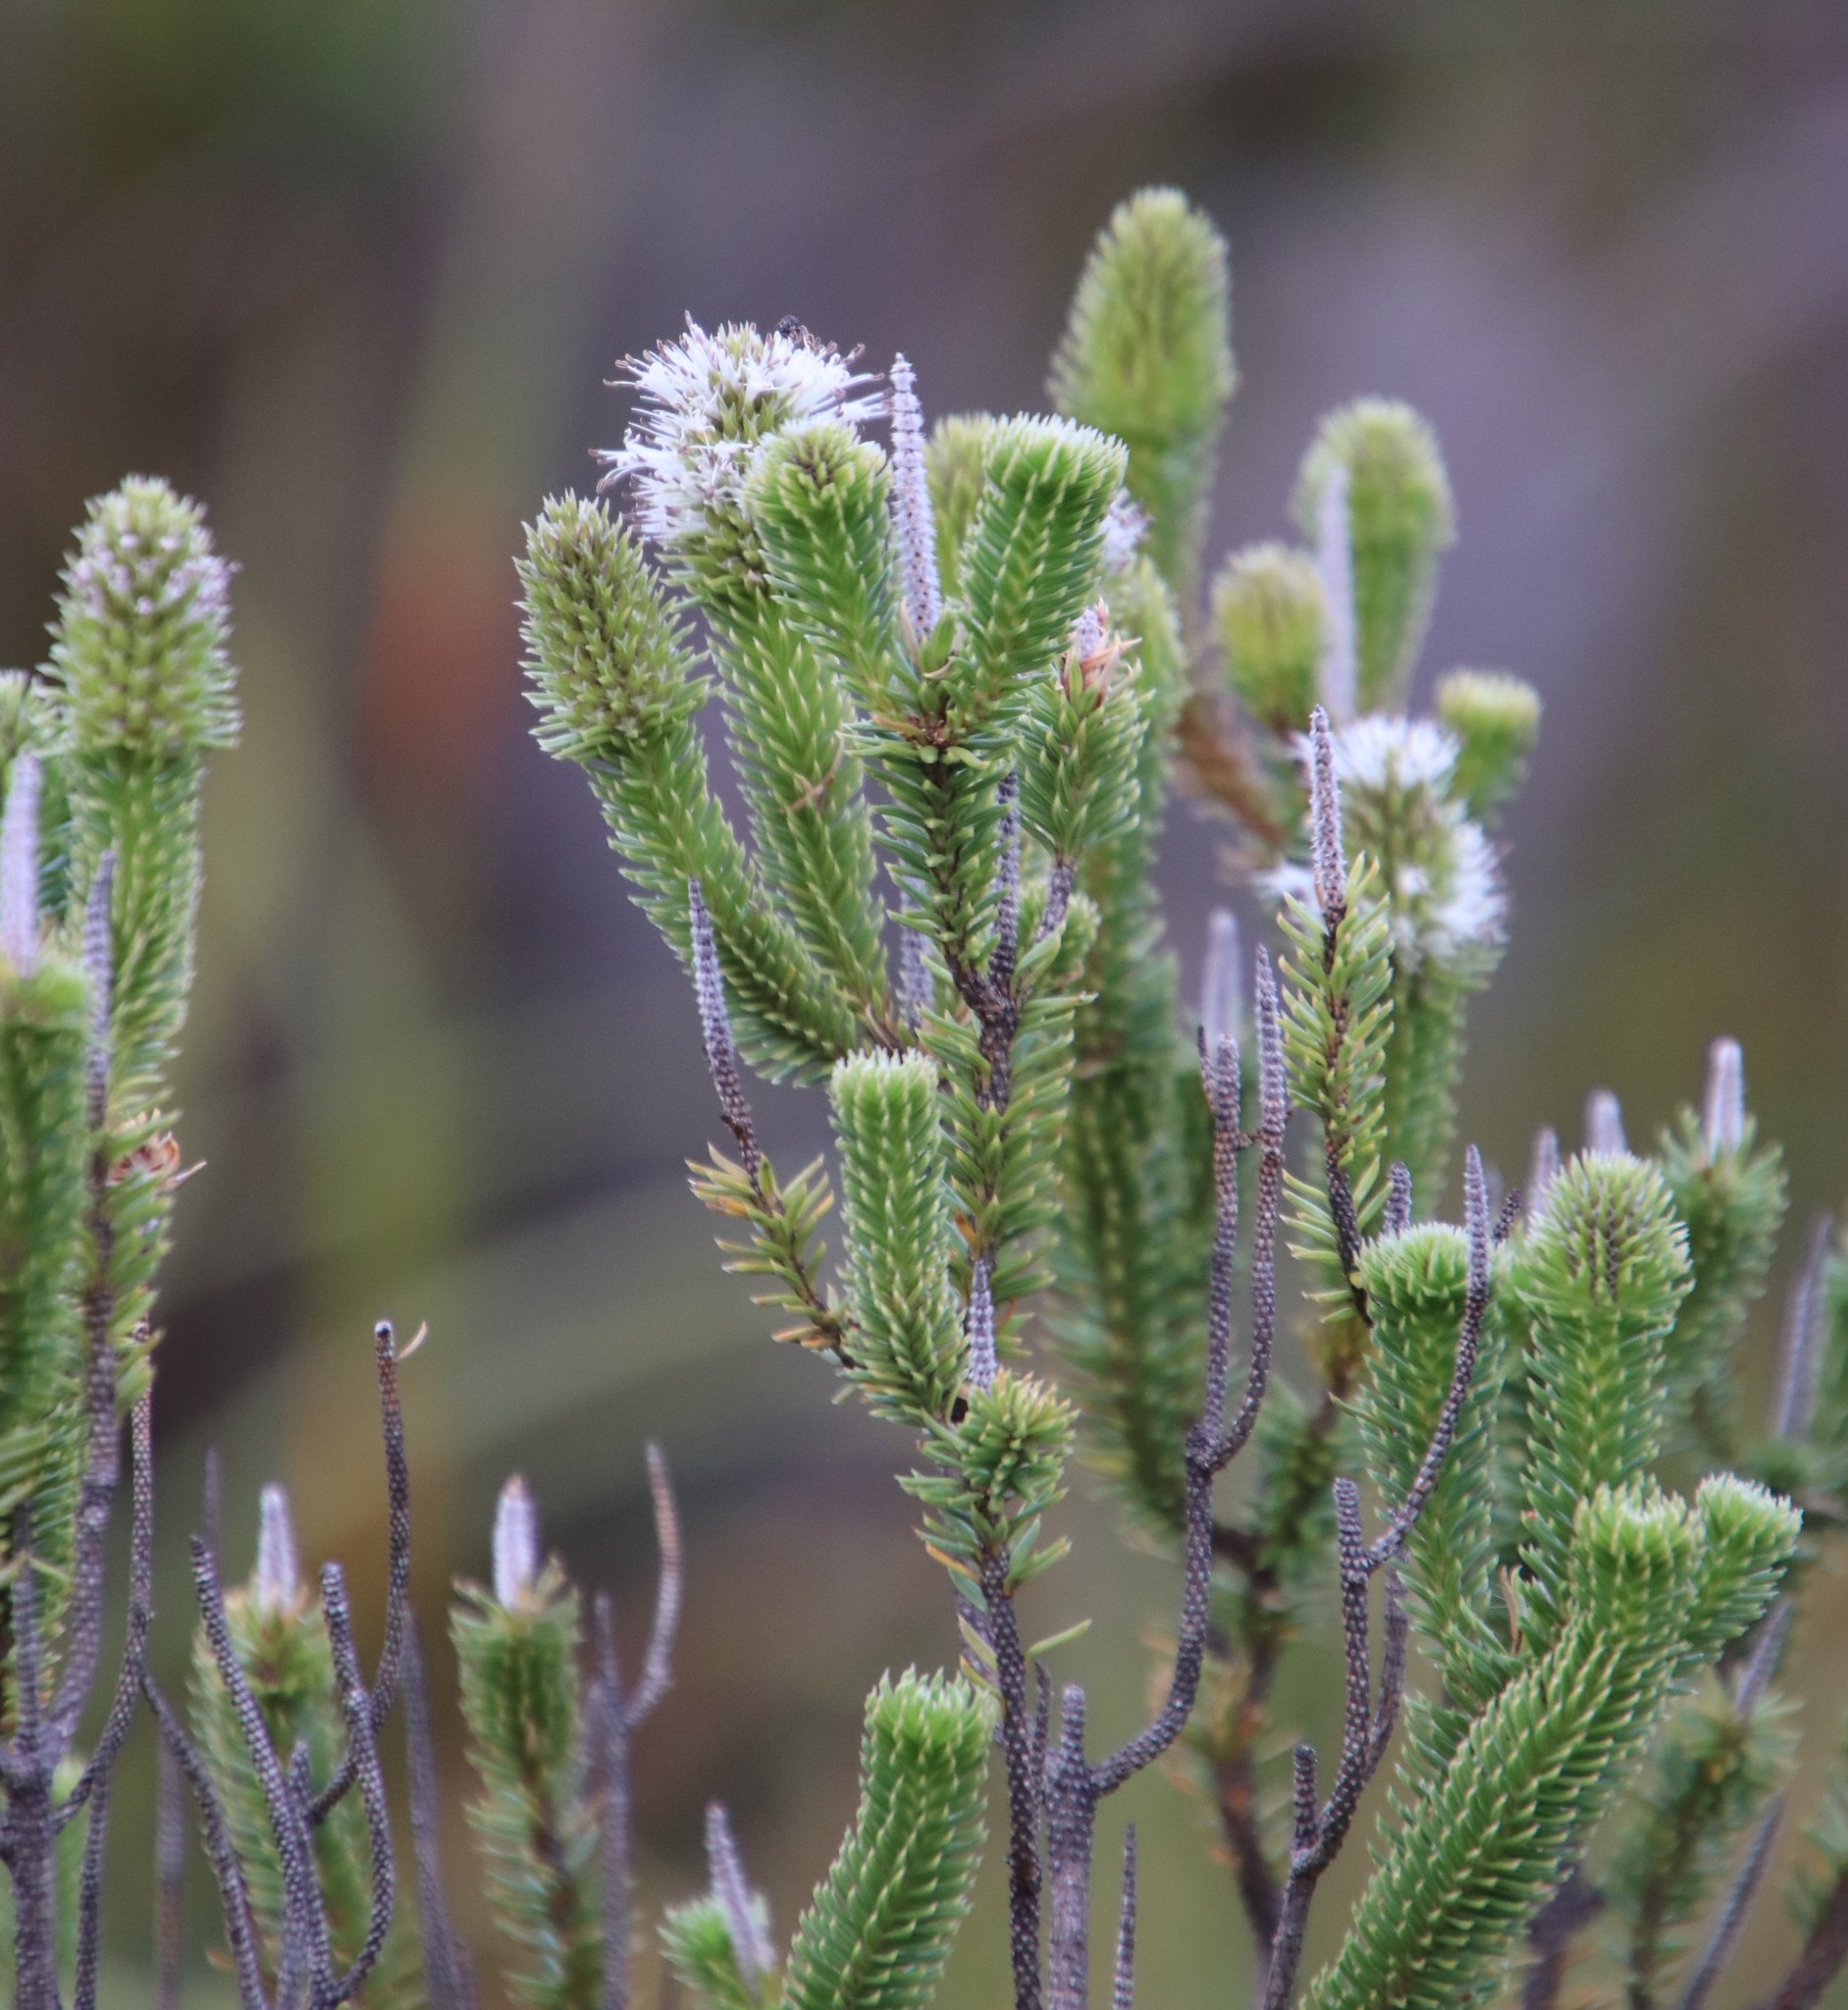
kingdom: Plantae
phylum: Tracheophyta
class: Magnoliopsida
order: Lamiales
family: Stilbaceae
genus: Stilbe
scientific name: Stilbe vestita
